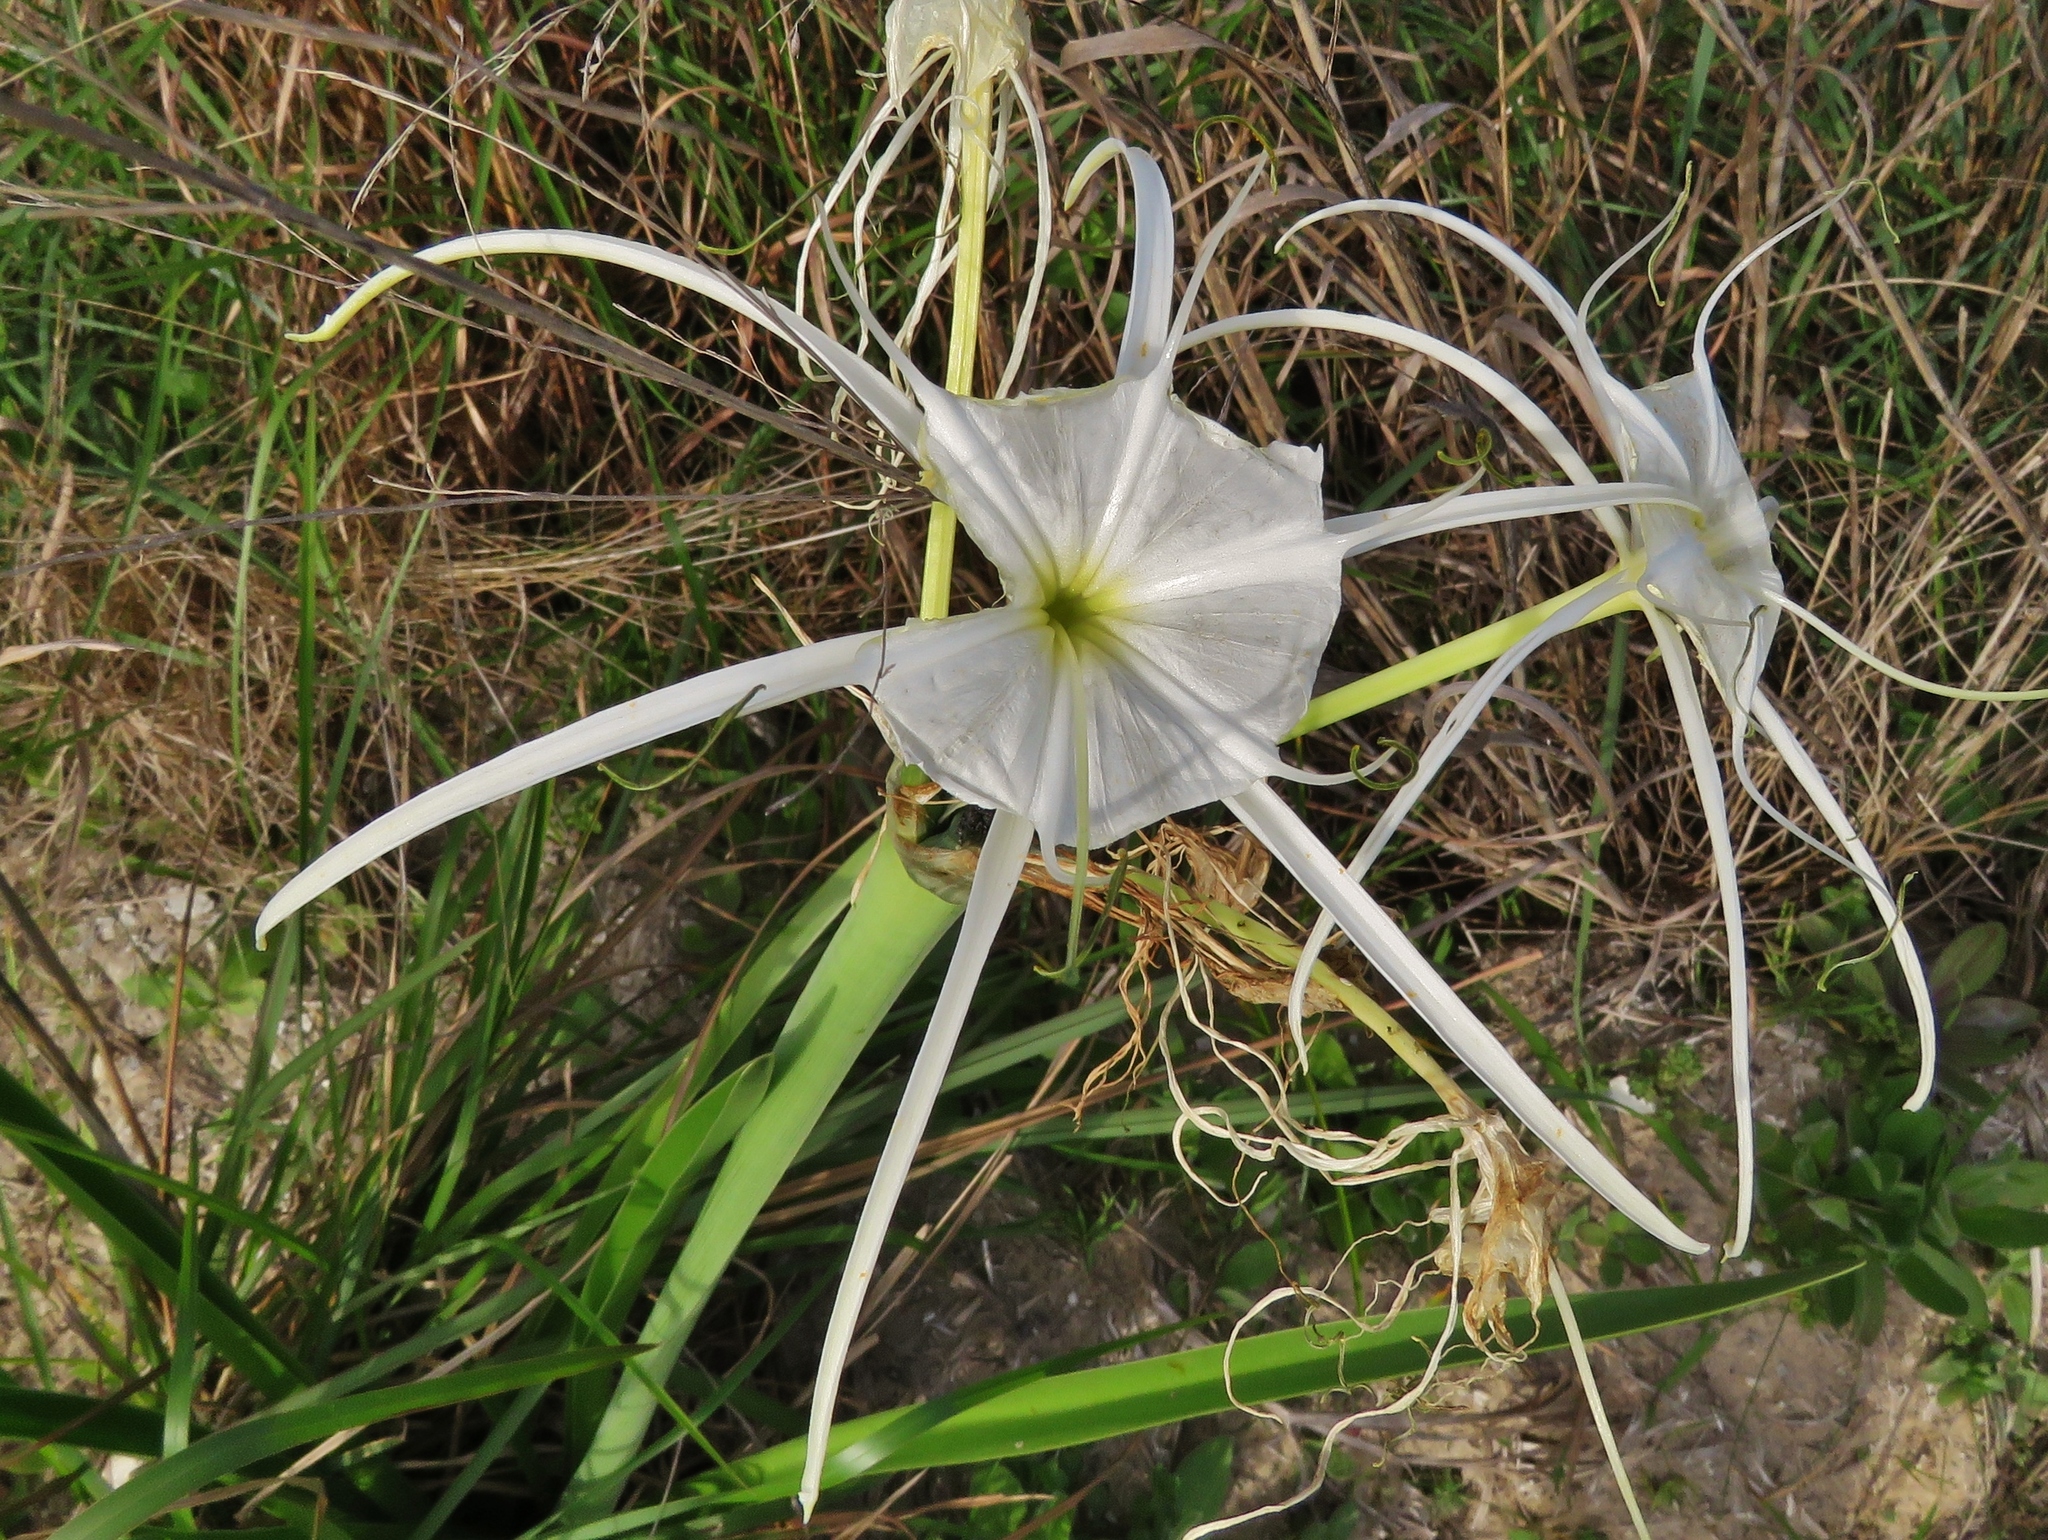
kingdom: Plantae
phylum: Tracheophyta
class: Liliopsida
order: Asparagales
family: Amaryllidaceae
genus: Hymenocallis
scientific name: Hymenocallis liriosme
